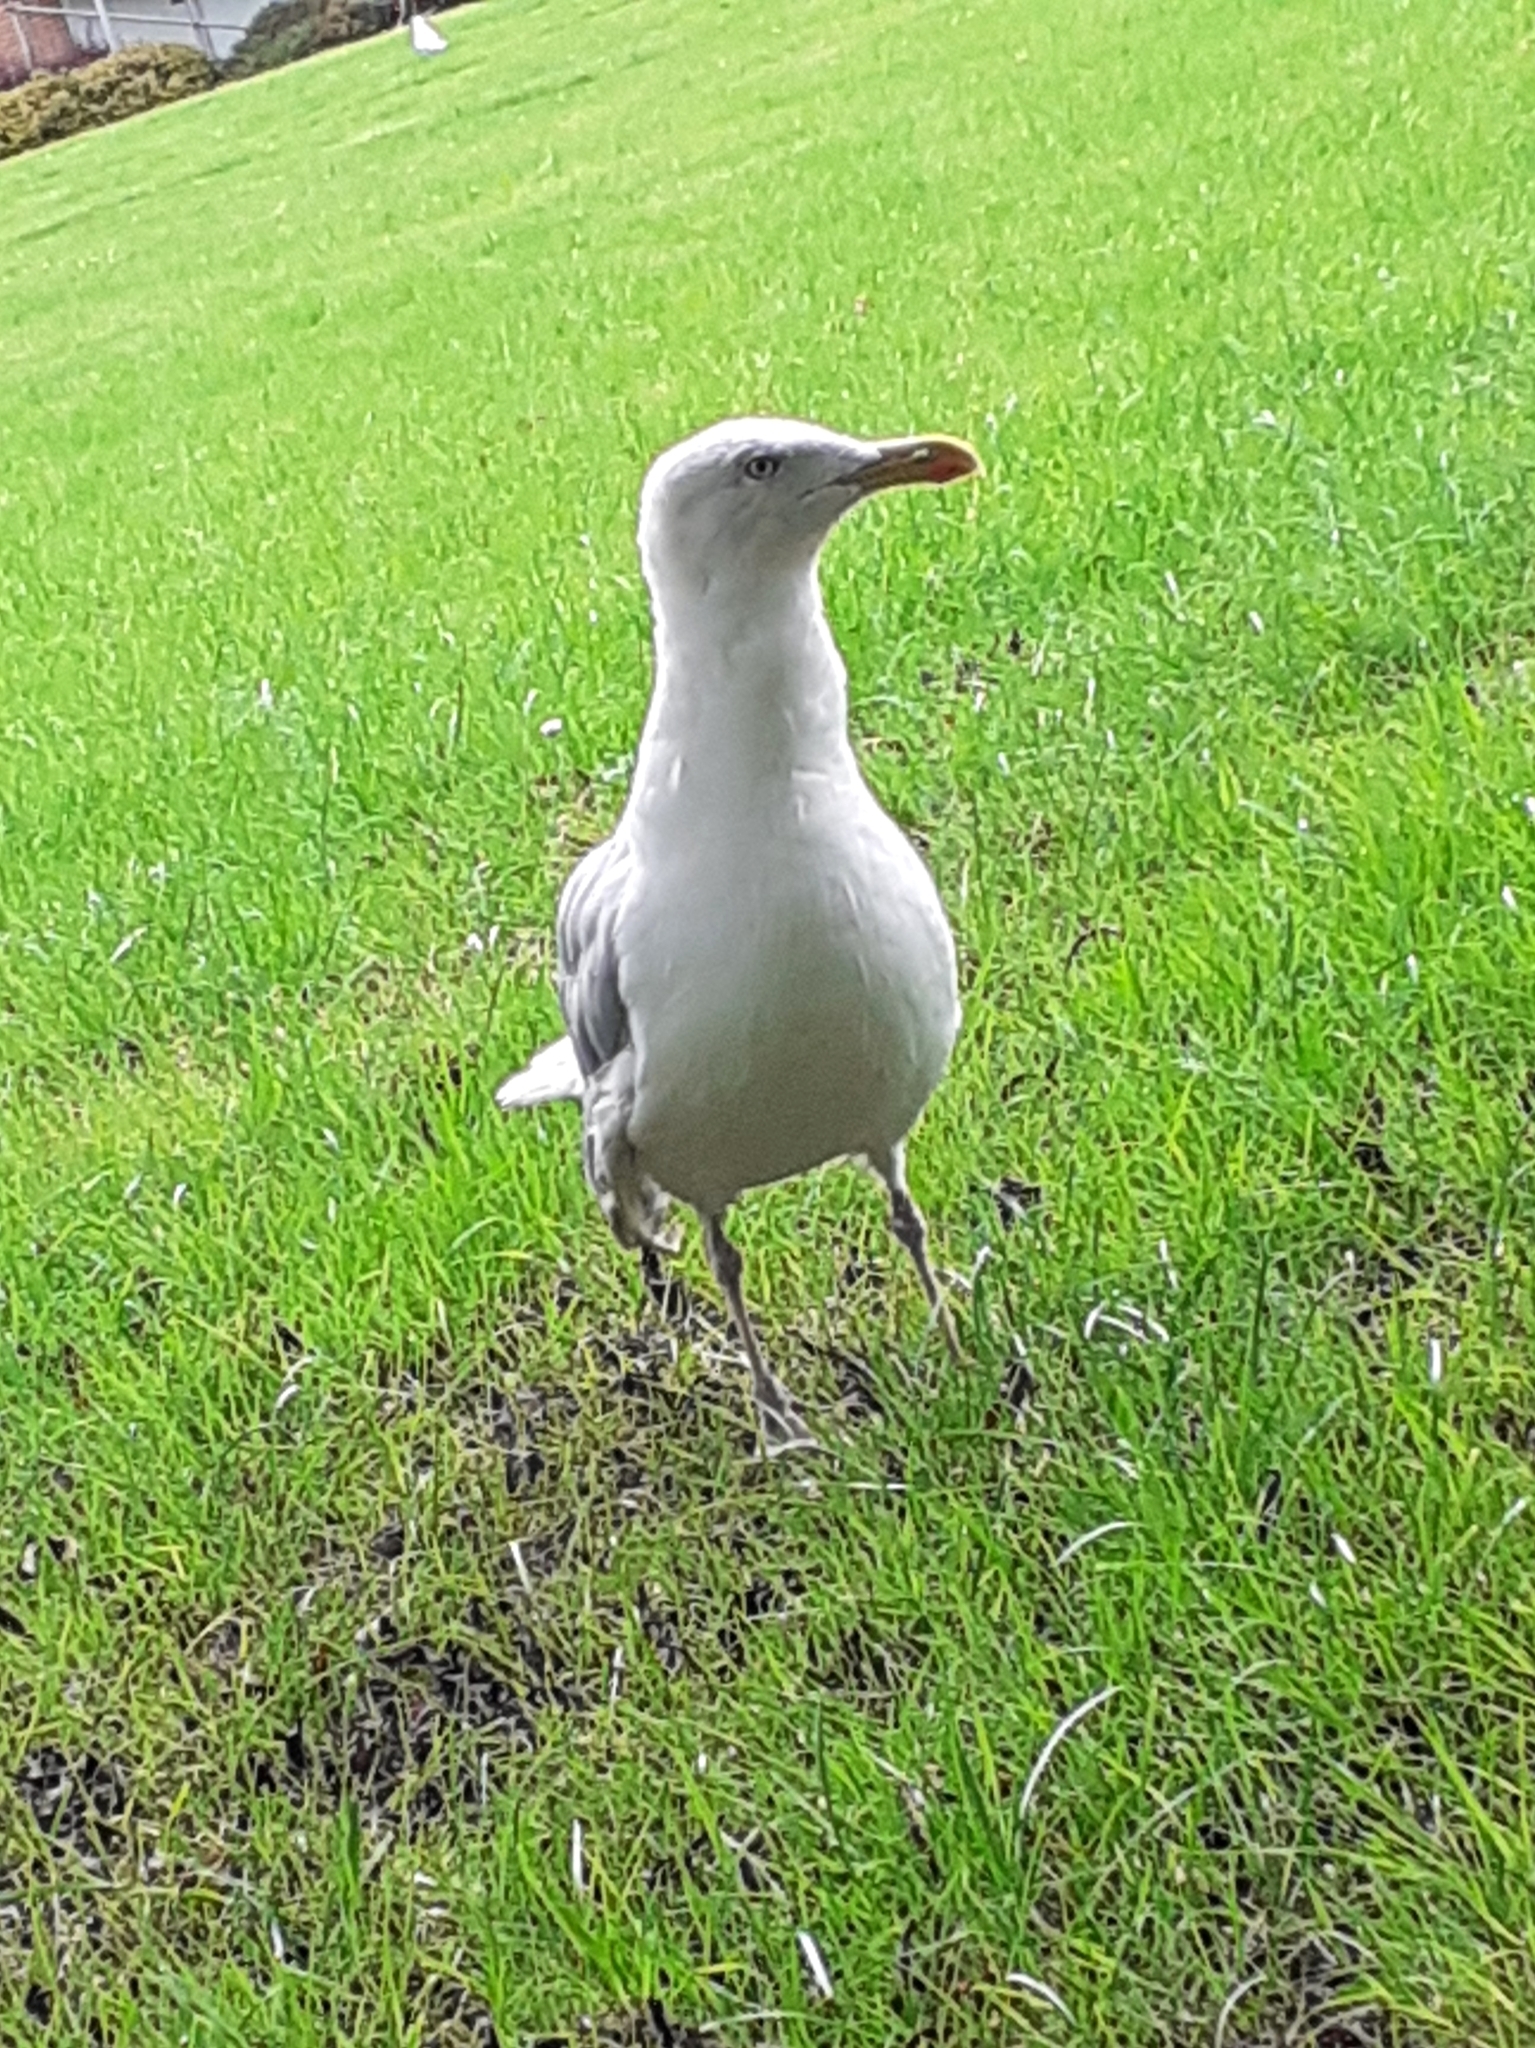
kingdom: Animalia
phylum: Chordata
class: Aves
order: Charadriiformes
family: Laridae
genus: Larus
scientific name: Larus argentatus
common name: Herring gull
